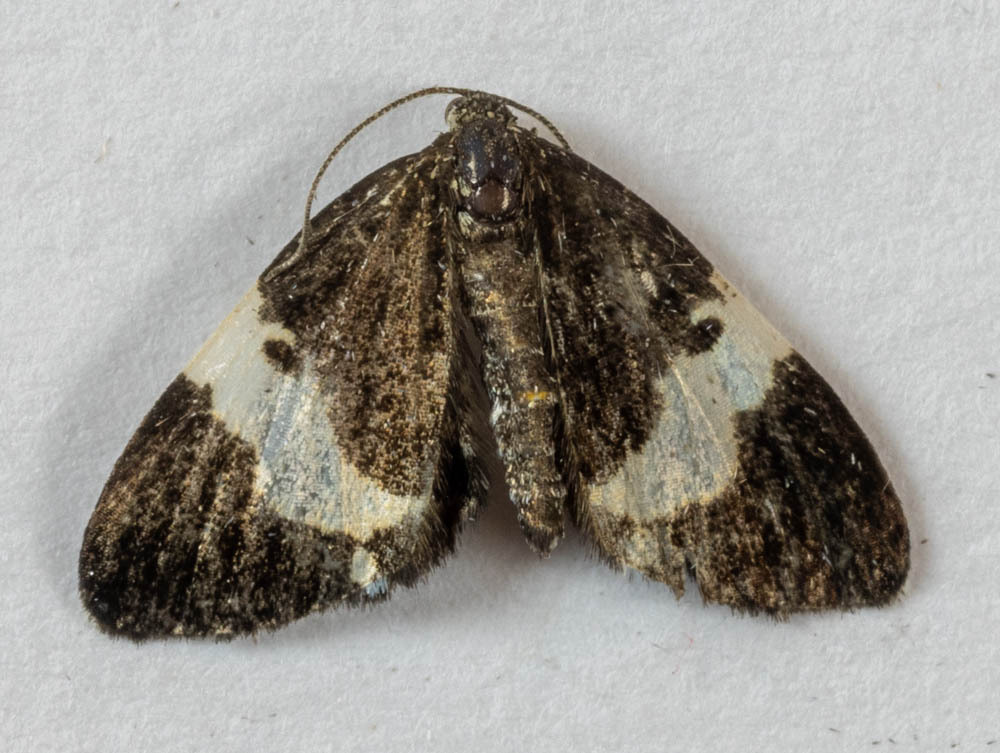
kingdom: Animalia
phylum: Arthropoda
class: Insecta
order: Lepidoptera
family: Geometridae
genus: Trichodezia
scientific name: Trichodezia albovittata
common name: White striped black
